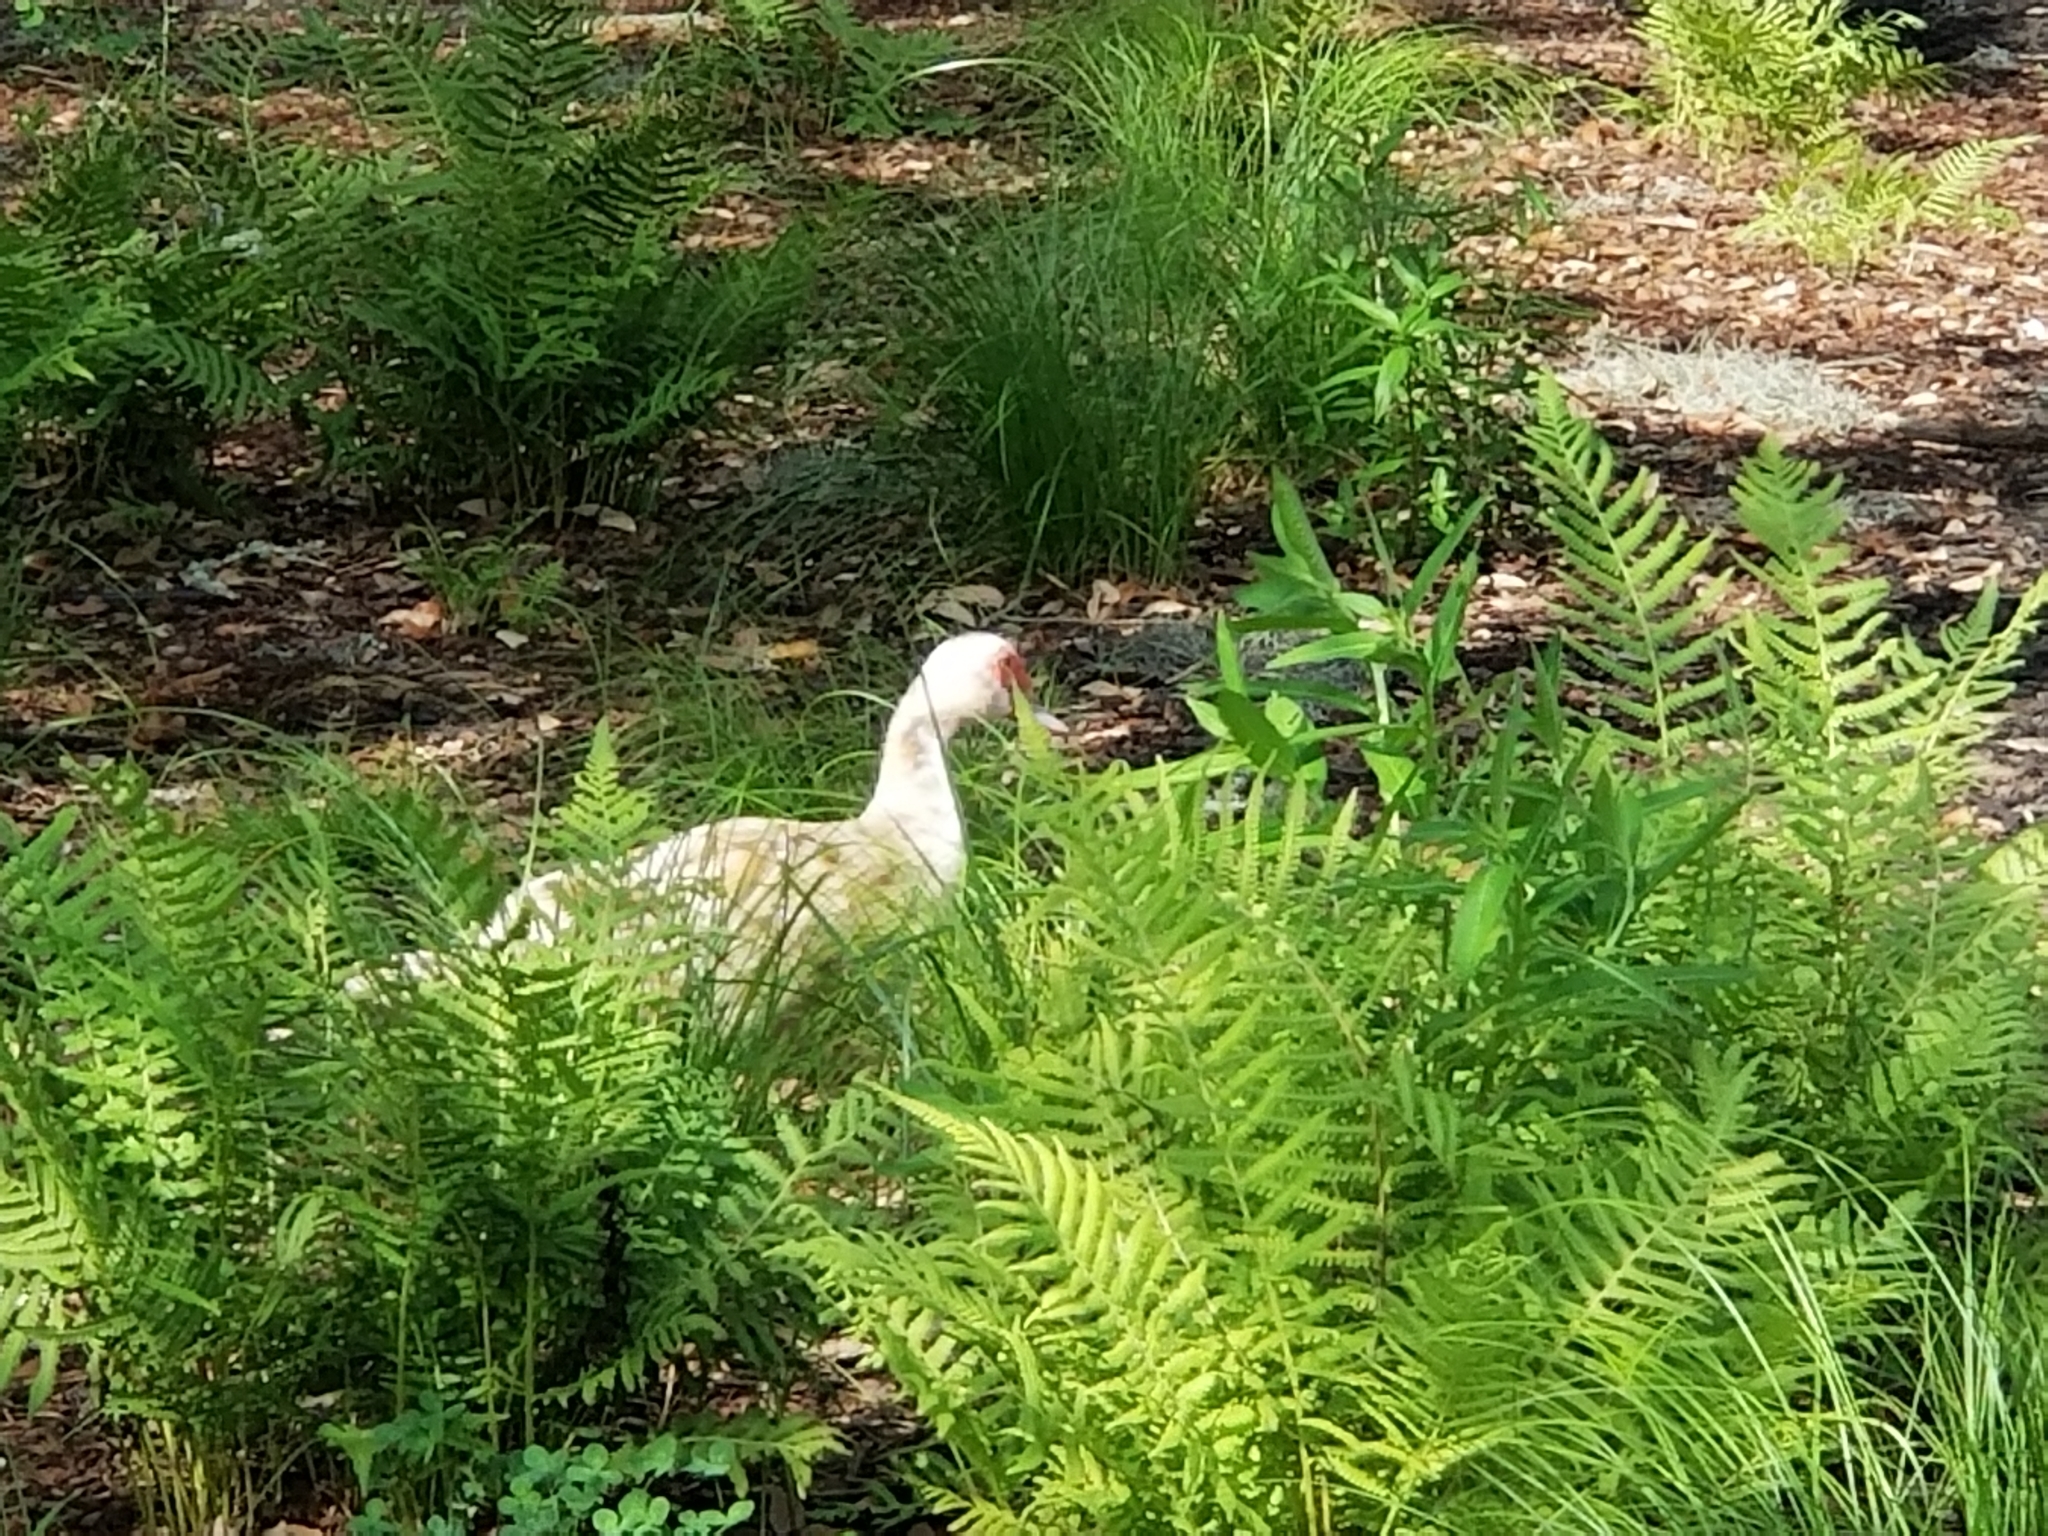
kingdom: Animalia
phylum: Chordata
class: Aves
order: Anseriformes
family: Anatidae
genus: Cairina
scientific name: Cairina moschata
